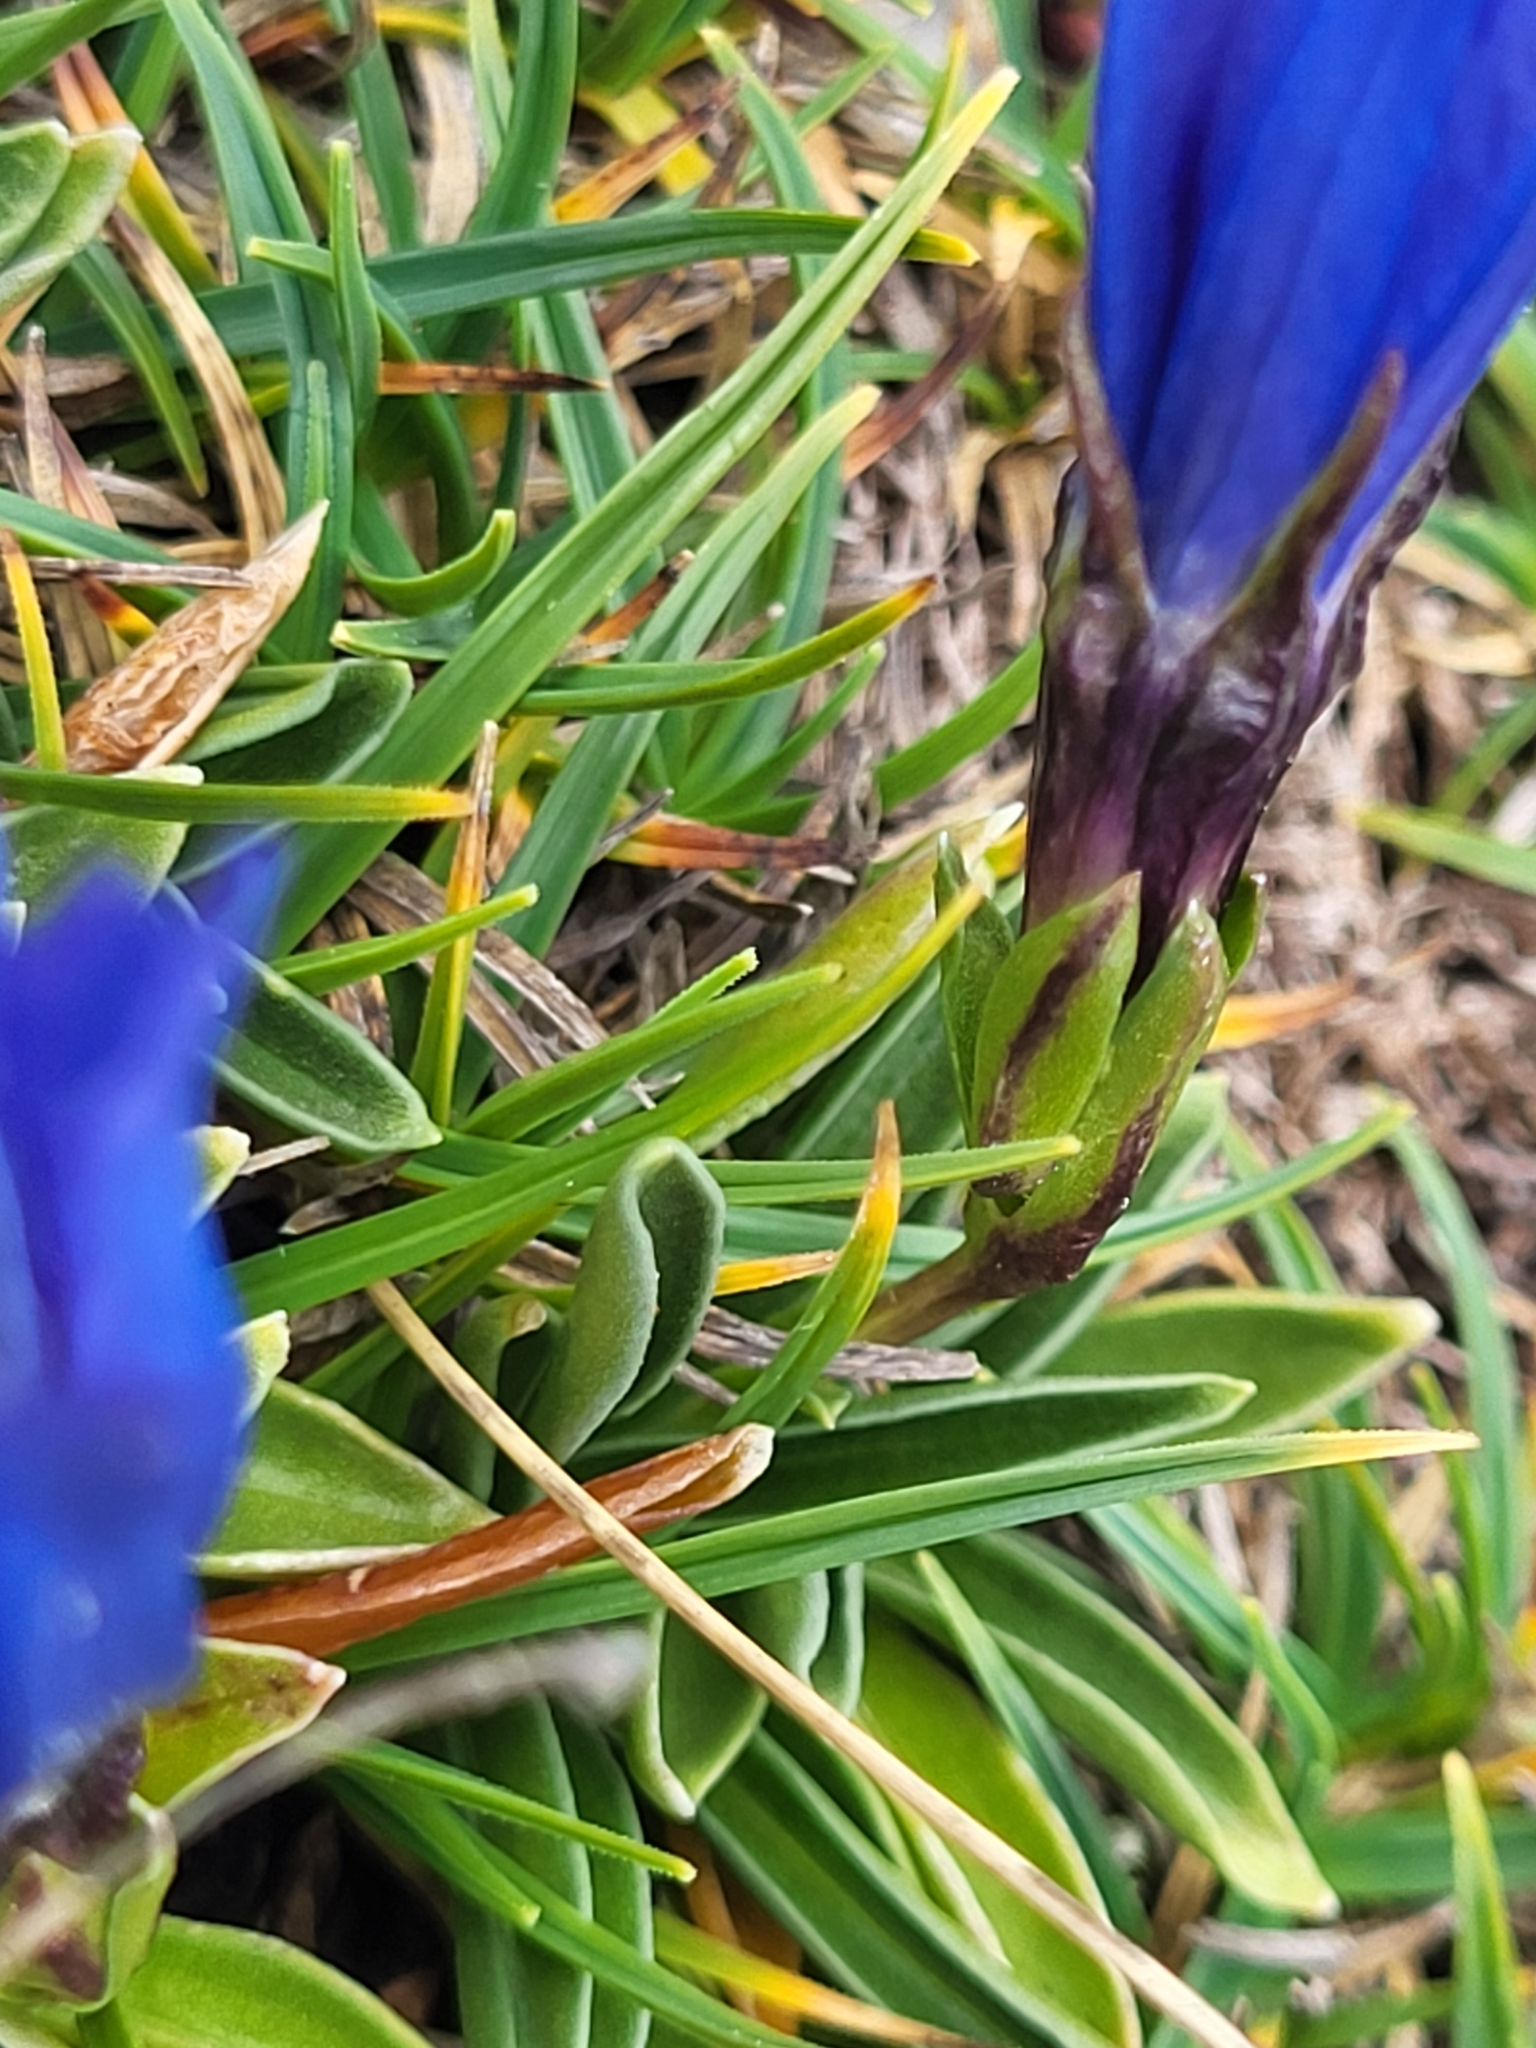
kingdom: Plantae
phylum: Tracheophyta
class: Magnoliopsida
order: Gentianales
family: Gentianaceae
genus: Gentiana
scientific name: Gentiana froelichii
